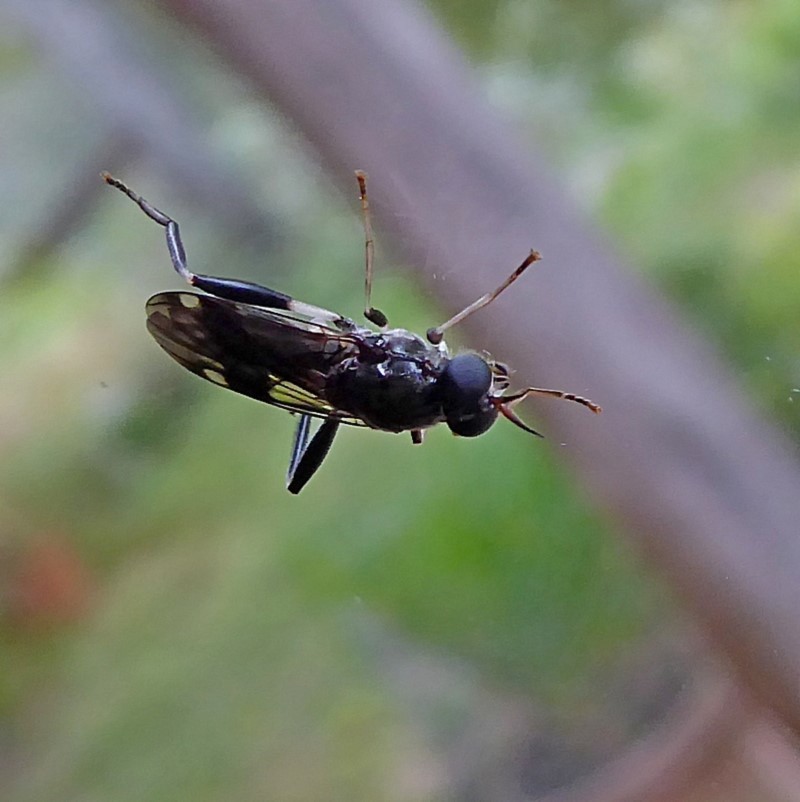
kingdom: Animalia
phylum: Arthropoda
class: Insecta
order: Diptera
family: Stratiomyidae
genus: Exaireta
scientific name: Exaireta spinigera
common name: Blue soldier fly
